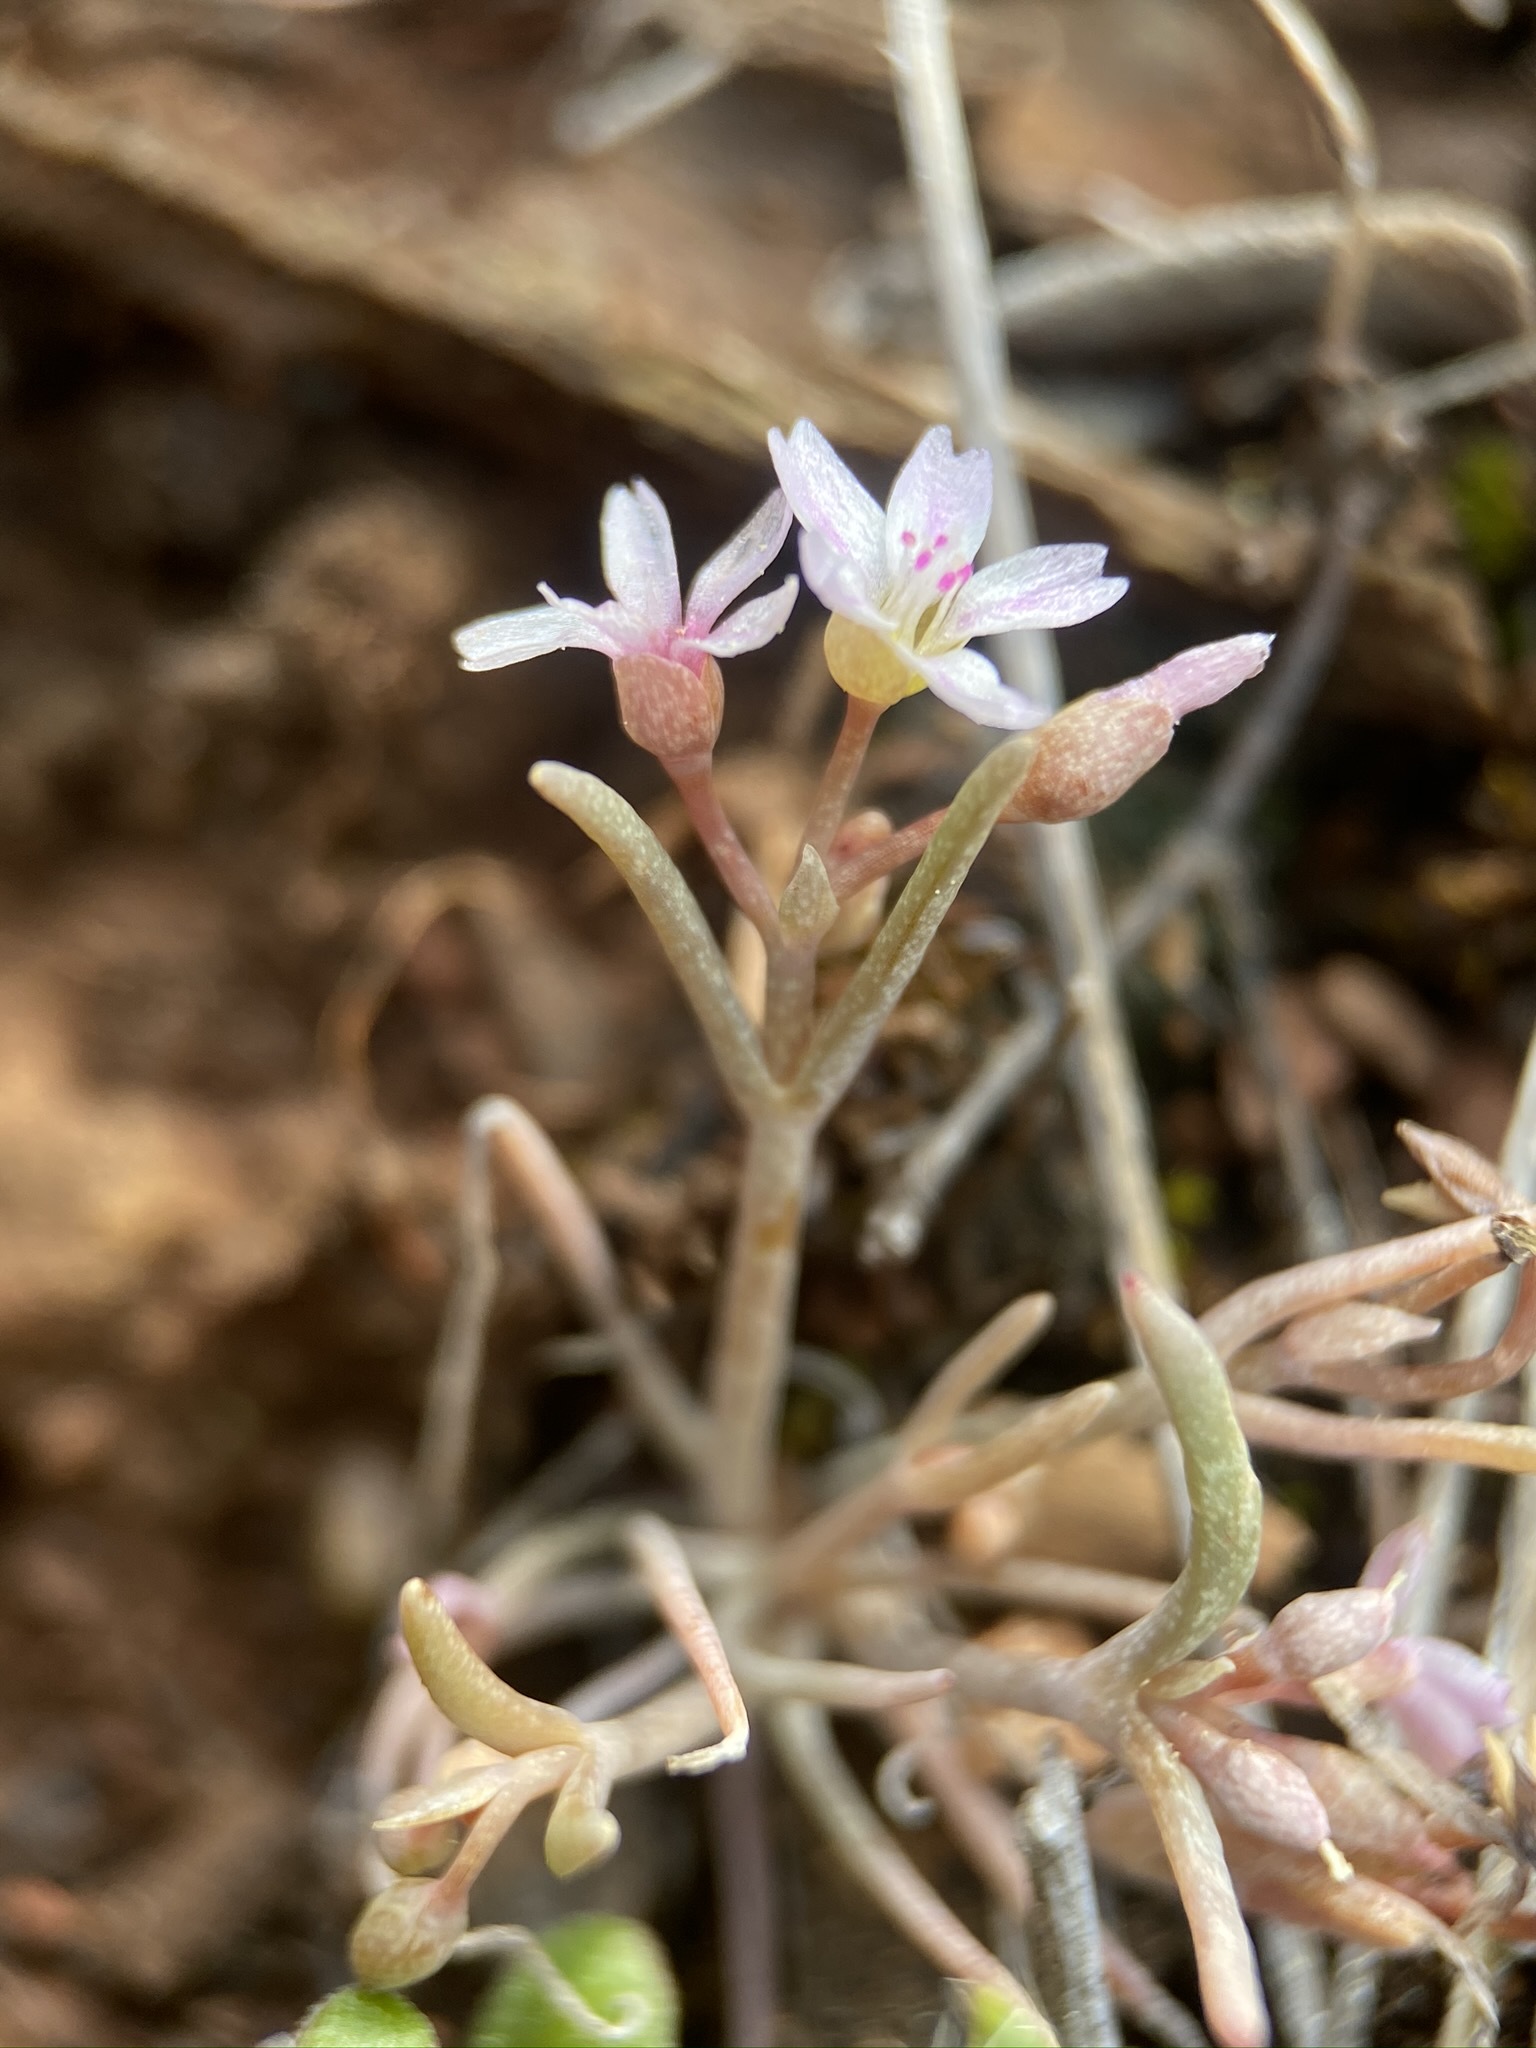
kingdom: Plantae
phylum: Tracheophyta
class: Magnoliopsida
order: Caryophyllales
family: Montiaceae
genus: Claytonia
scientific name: Claytonia exigua
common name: Pale spring beauty
